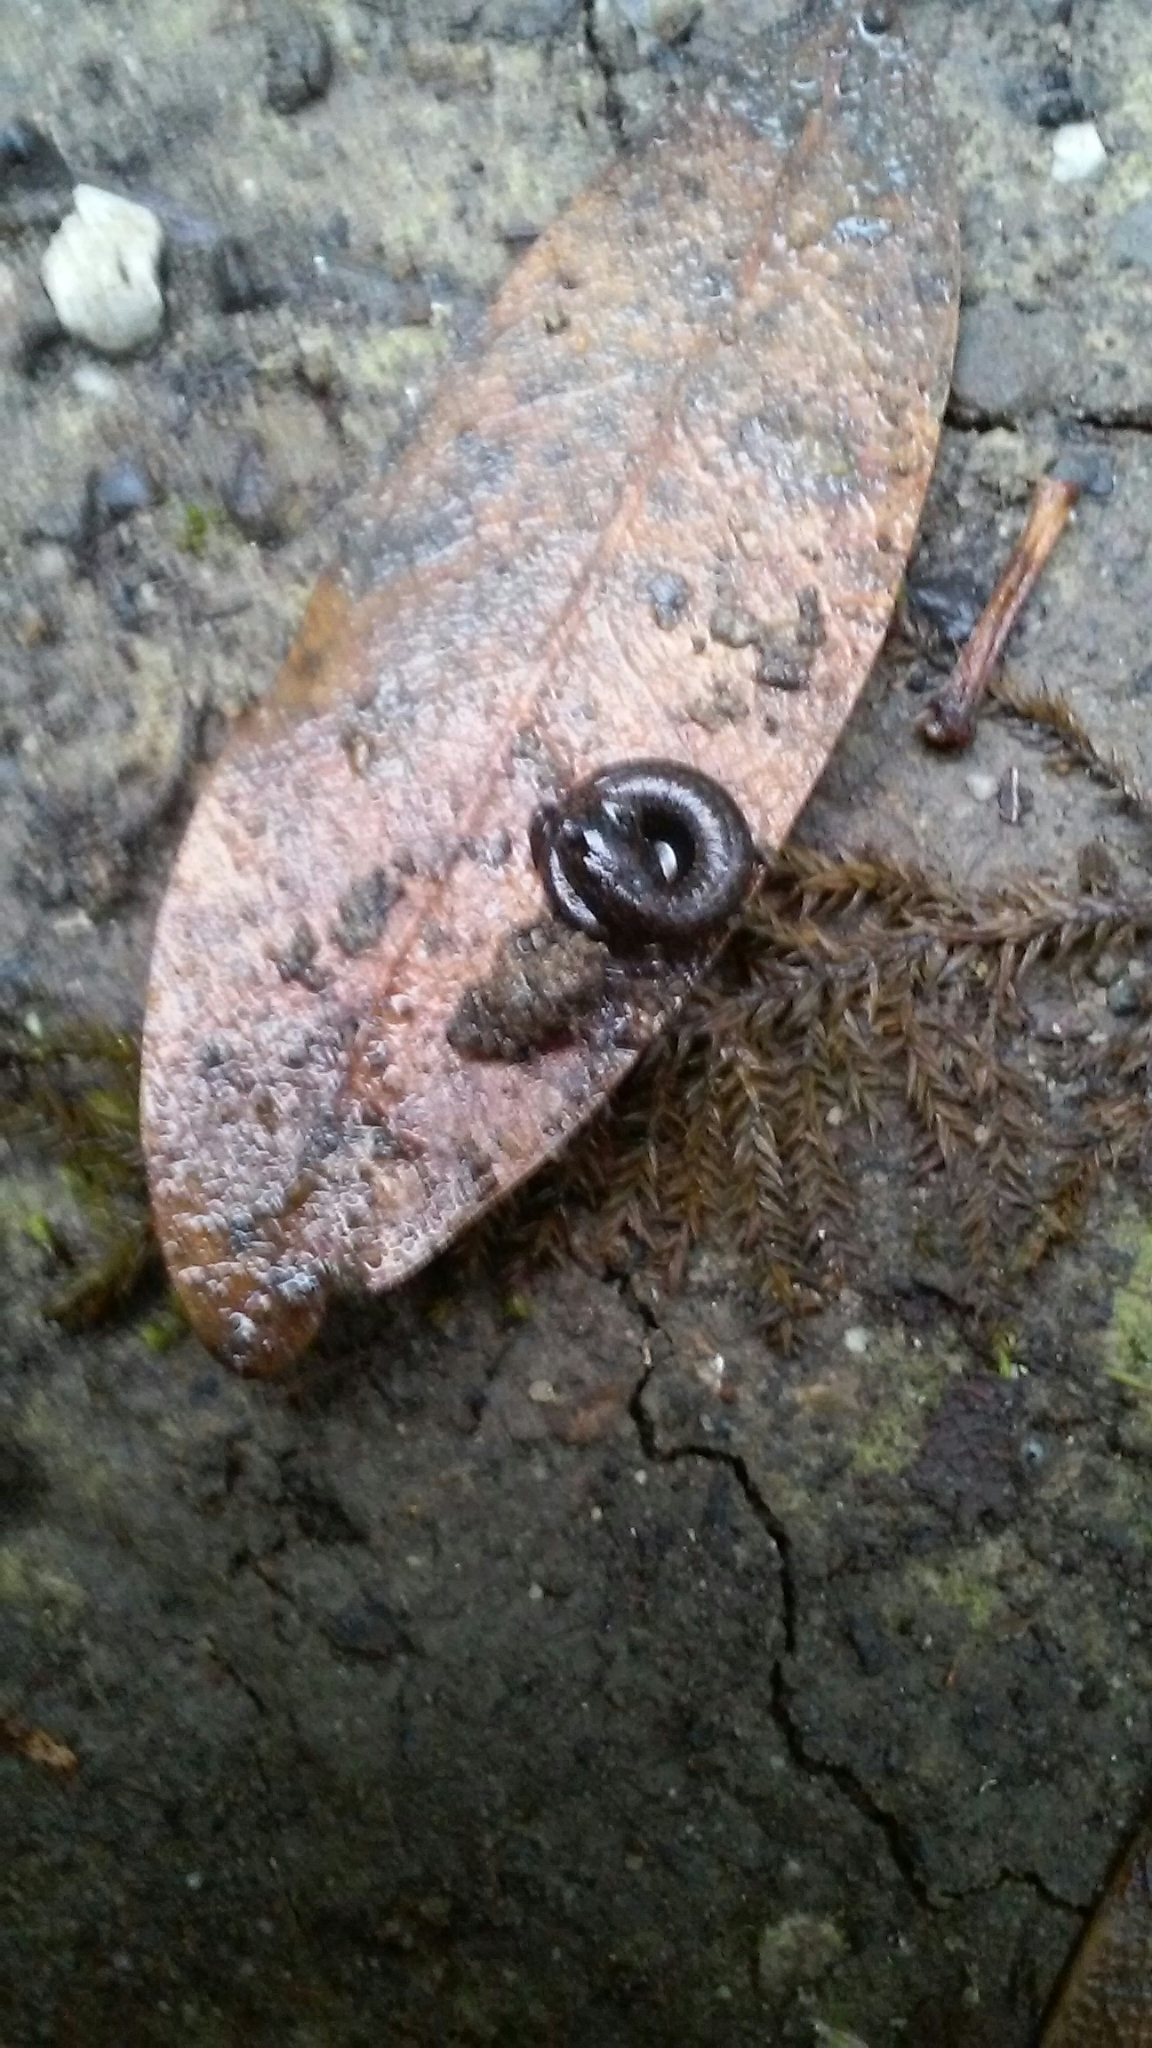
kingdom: Animalia
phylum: Chordata
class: Amphibia
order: Caudata
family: Plethodontidae
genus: Batrachoseps
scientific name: Batrachoseps attenuatus
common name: California slender salamander
